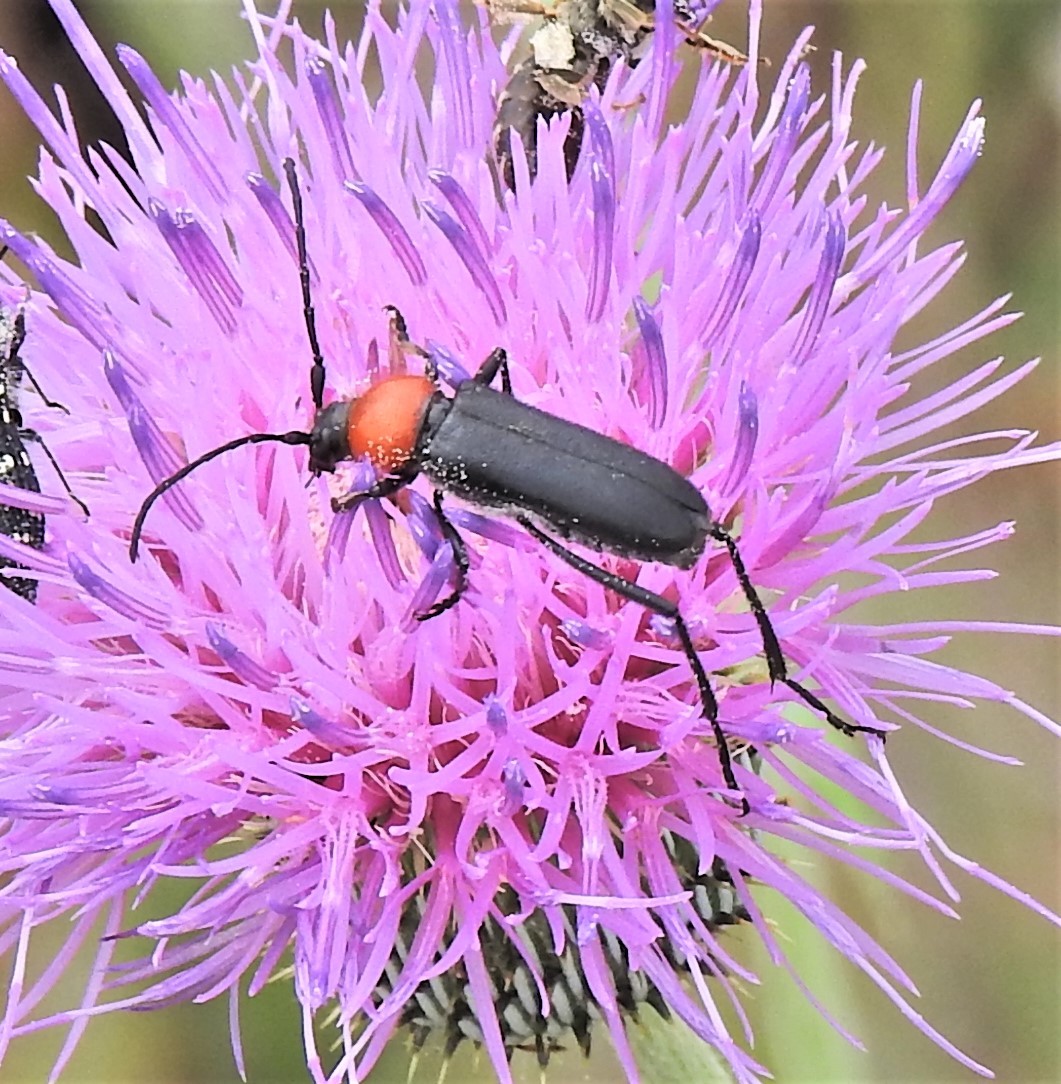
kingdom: Animalia
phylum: Arthropoda
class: Insecta
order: Coleoptera
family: Cerambycidae
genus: Batyle
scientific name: Batyle ignicollis
